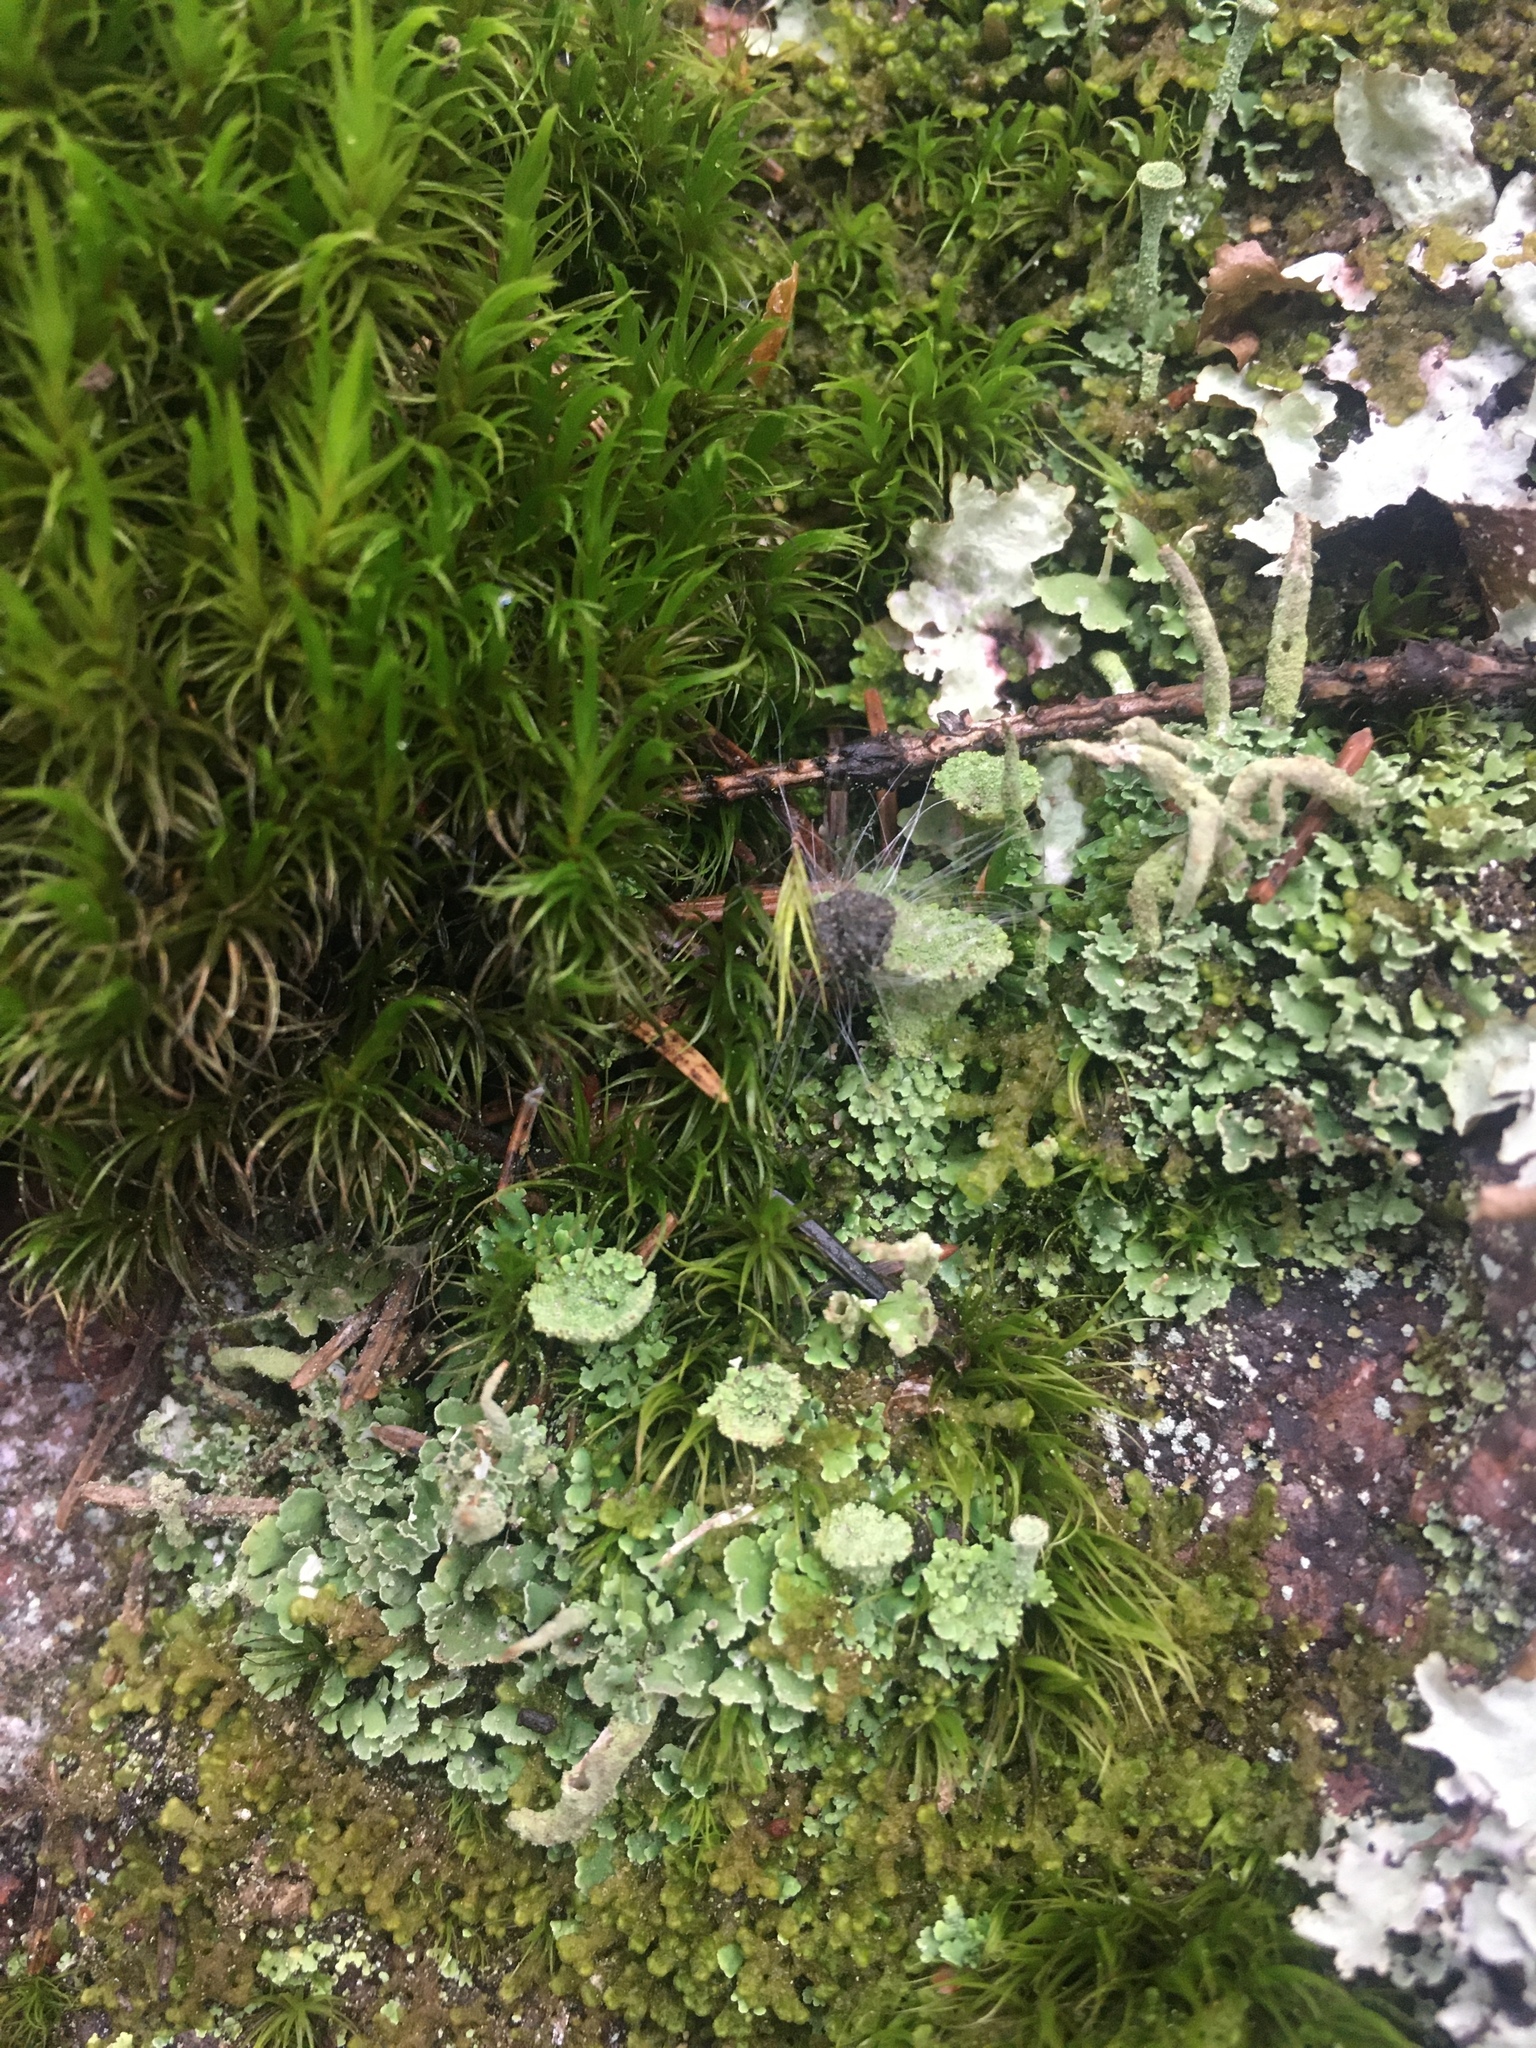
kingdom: Fungi
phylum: Ascomycota
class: Lecanoromycetes
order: Lecanorales
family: Cladoniaceae
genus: Cladonia
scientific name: Cladonia
